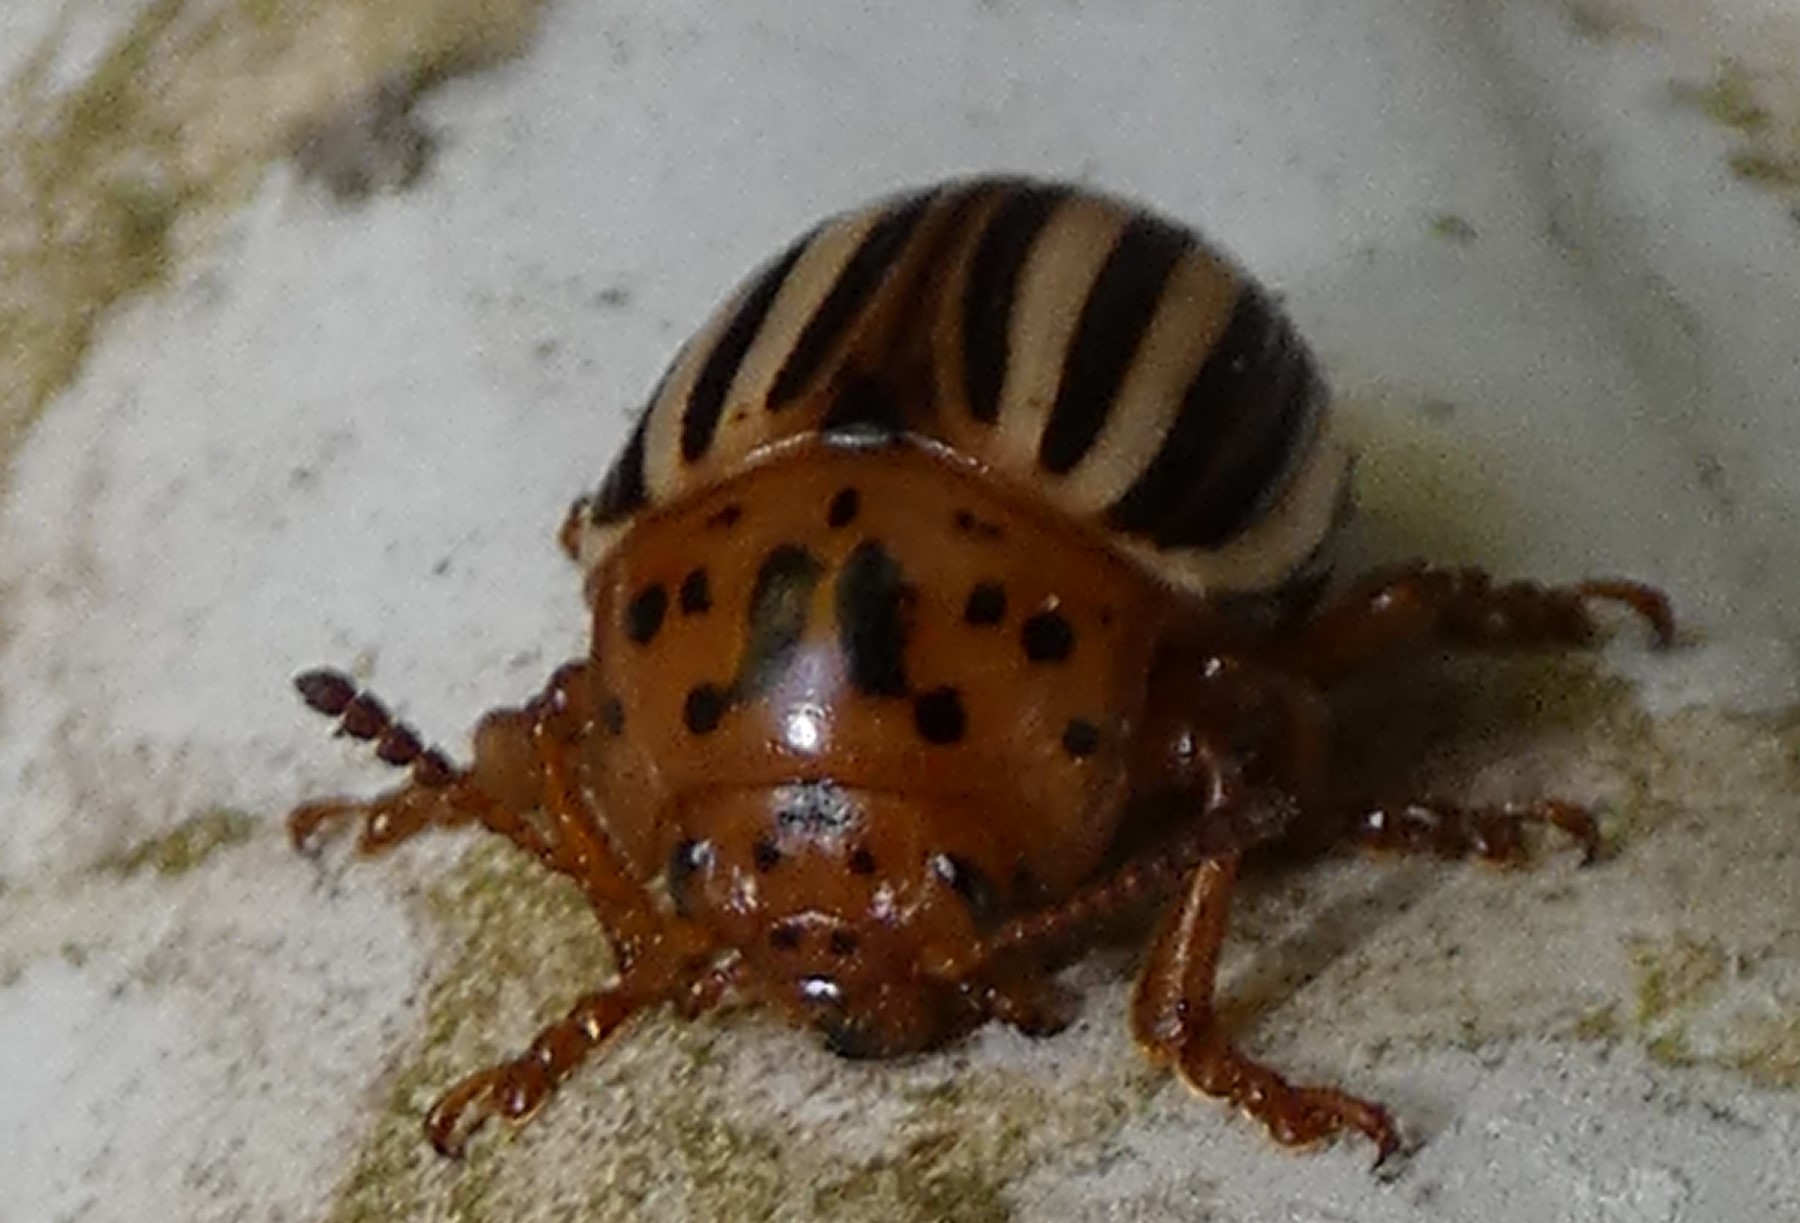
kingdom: Animalia
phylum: Arthropoda
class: Insecta
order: Coleoptera
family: Chrysomelidae
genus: Leptinotarsa
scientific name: Leptinotarsa juncta
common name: False potato beetle
